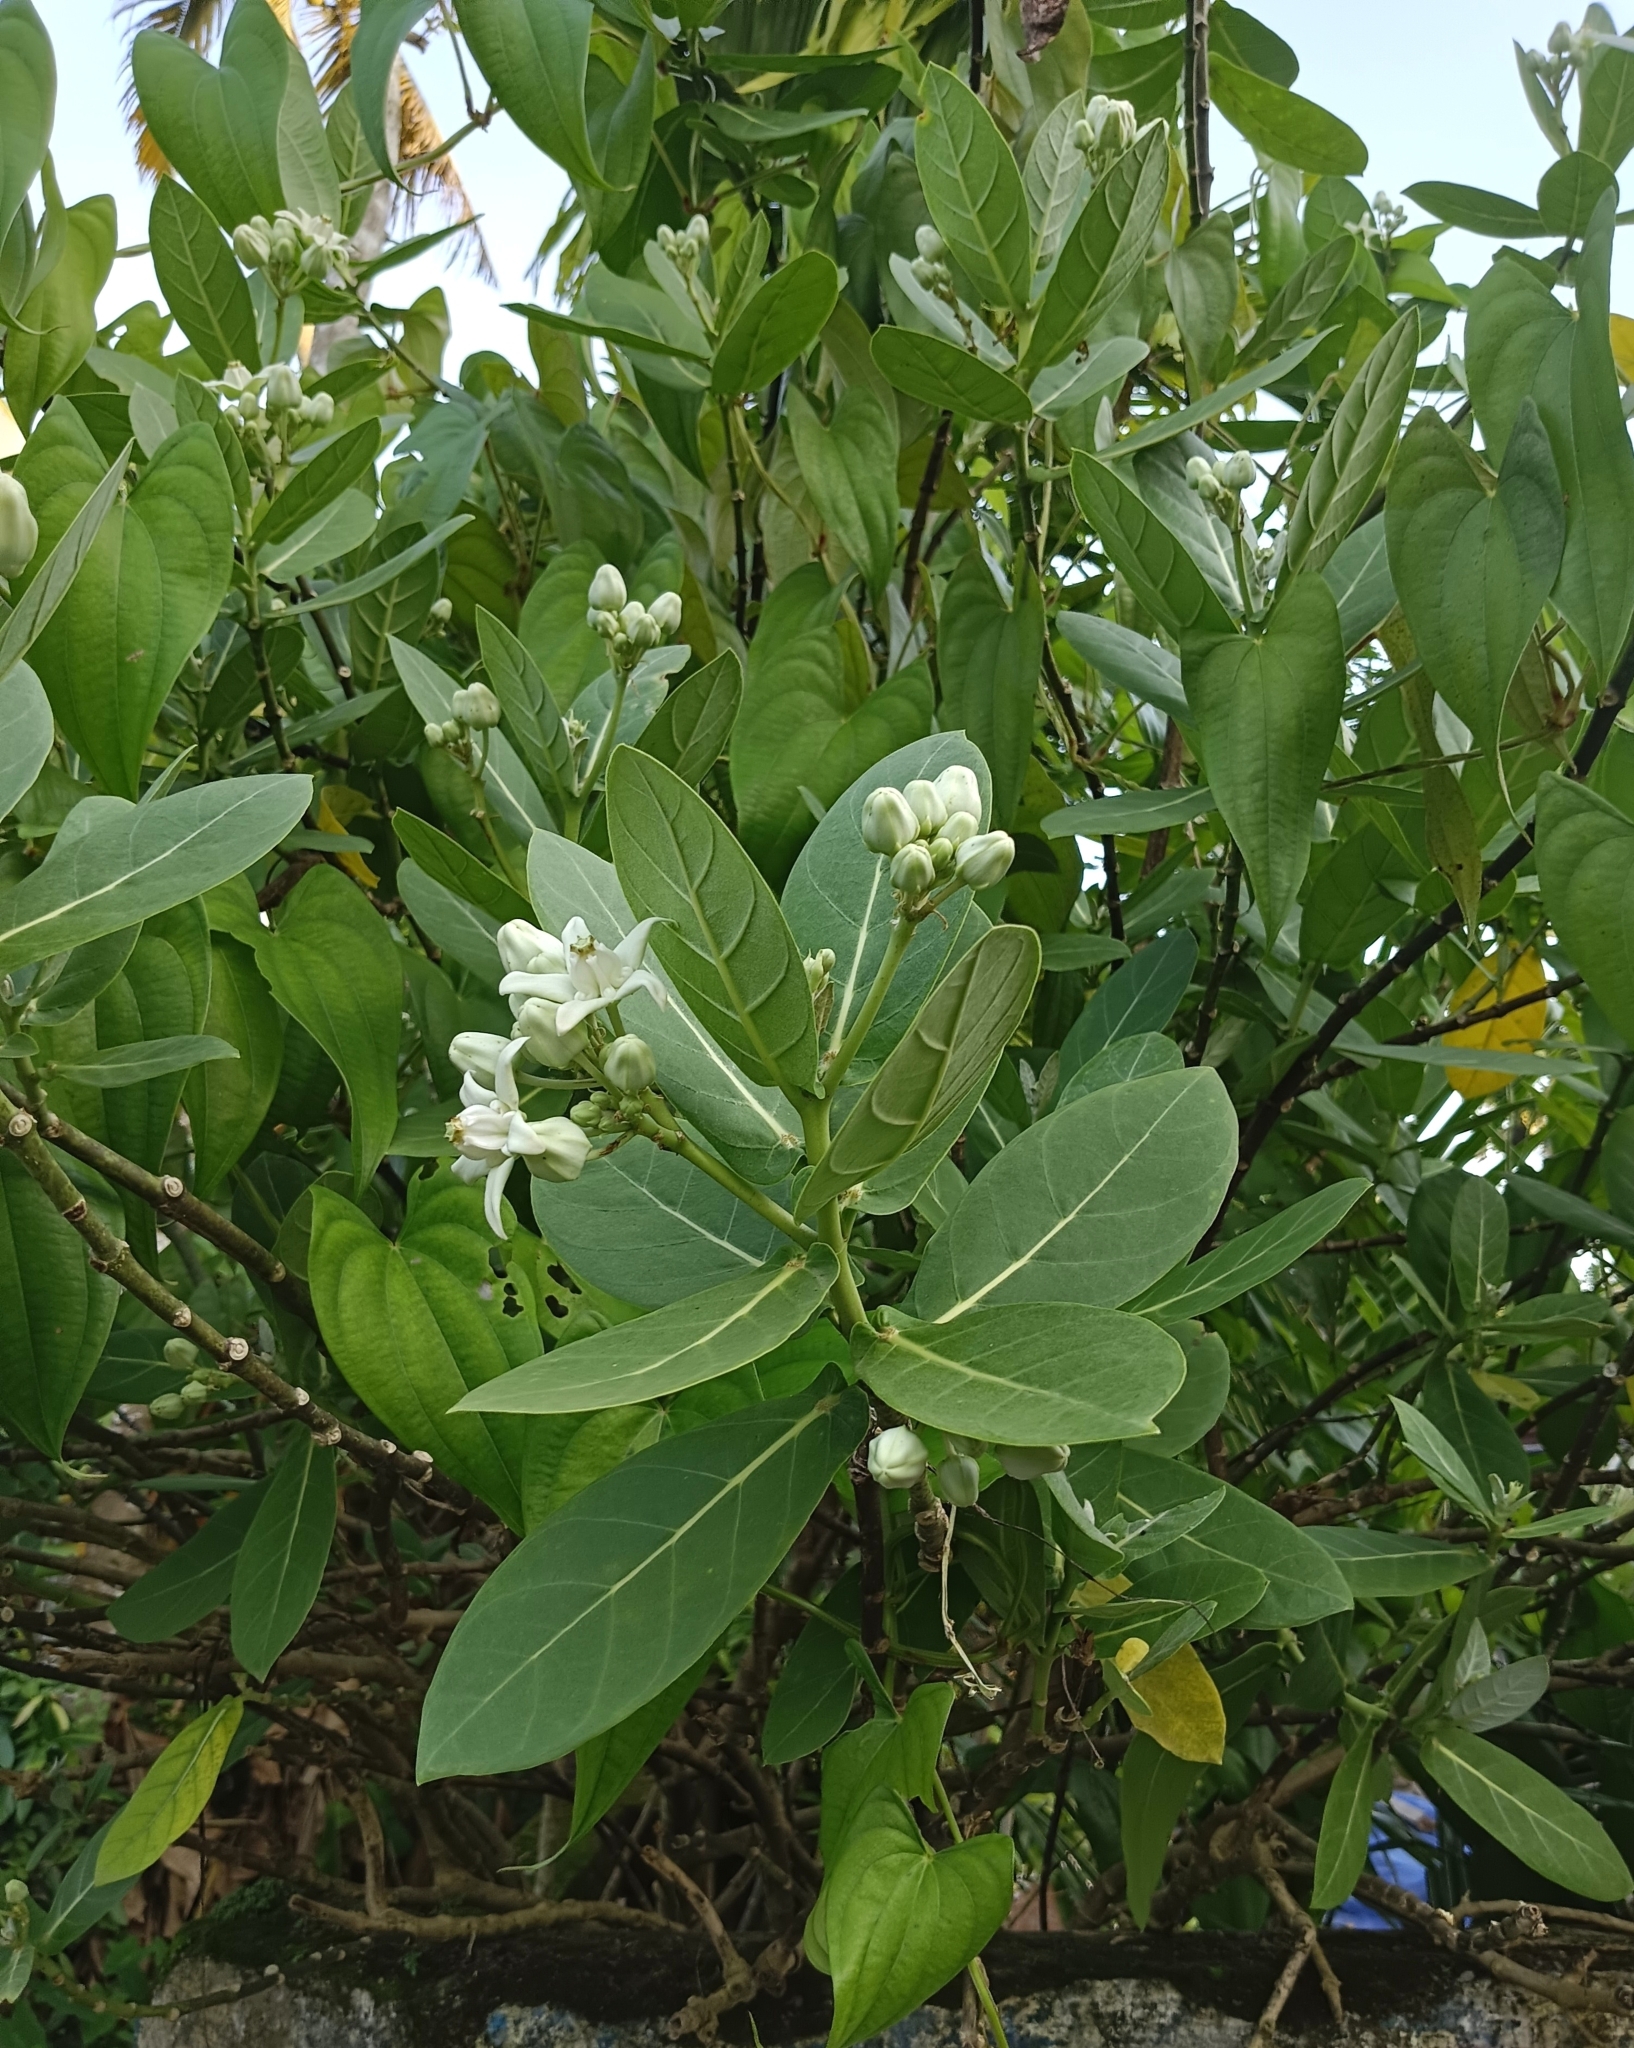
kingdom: Plantae
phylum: Tracheophyta
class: Magnoliopsida
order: Gentianales
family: Apocynaceae
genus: Calotropis
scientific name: Calotropis gigantea
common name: Crown flower
